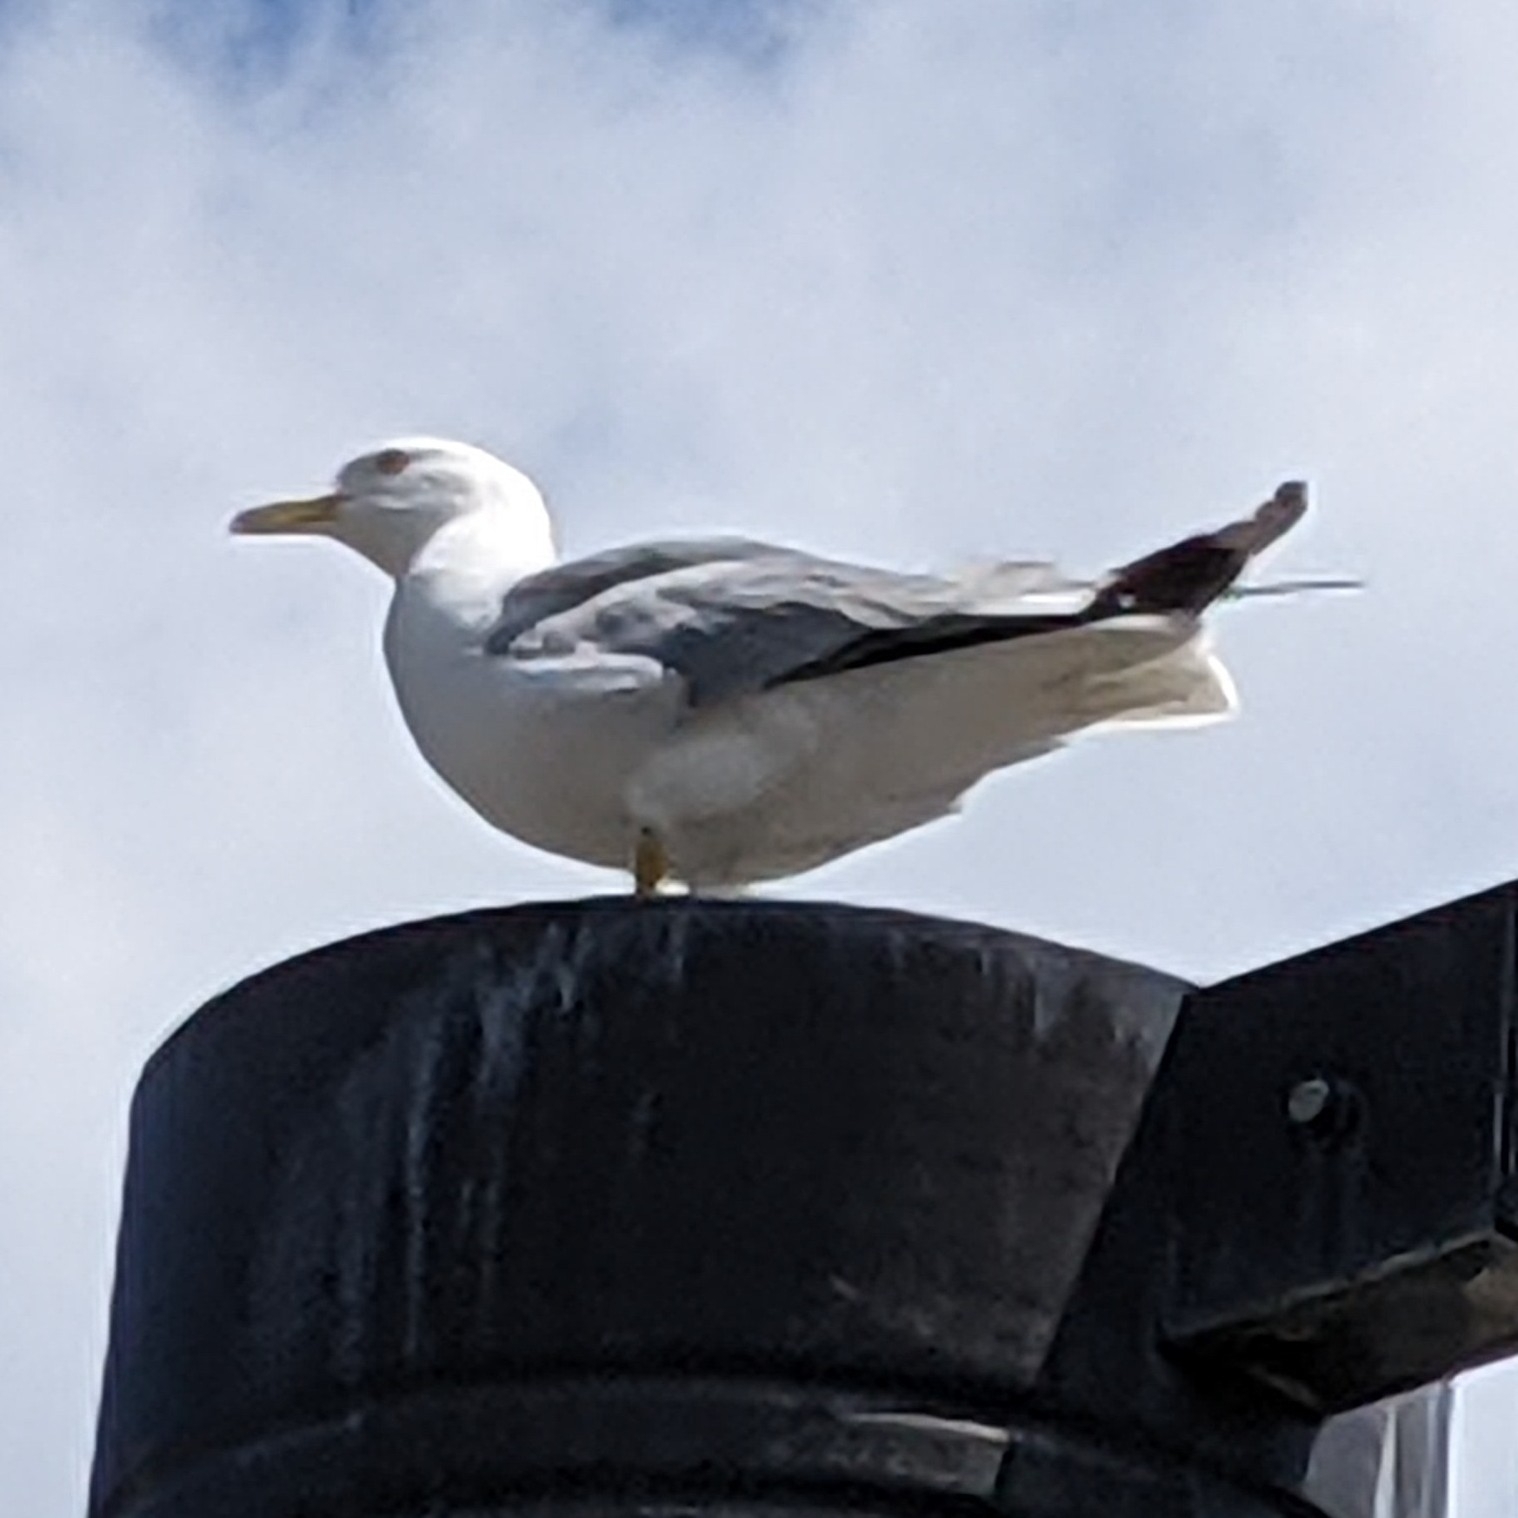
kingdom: Animalia
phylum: Chordata
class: Aves
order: Charadriiformes
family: Laridae
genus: Larus
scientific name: Larus argentatus
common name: Herring gull
